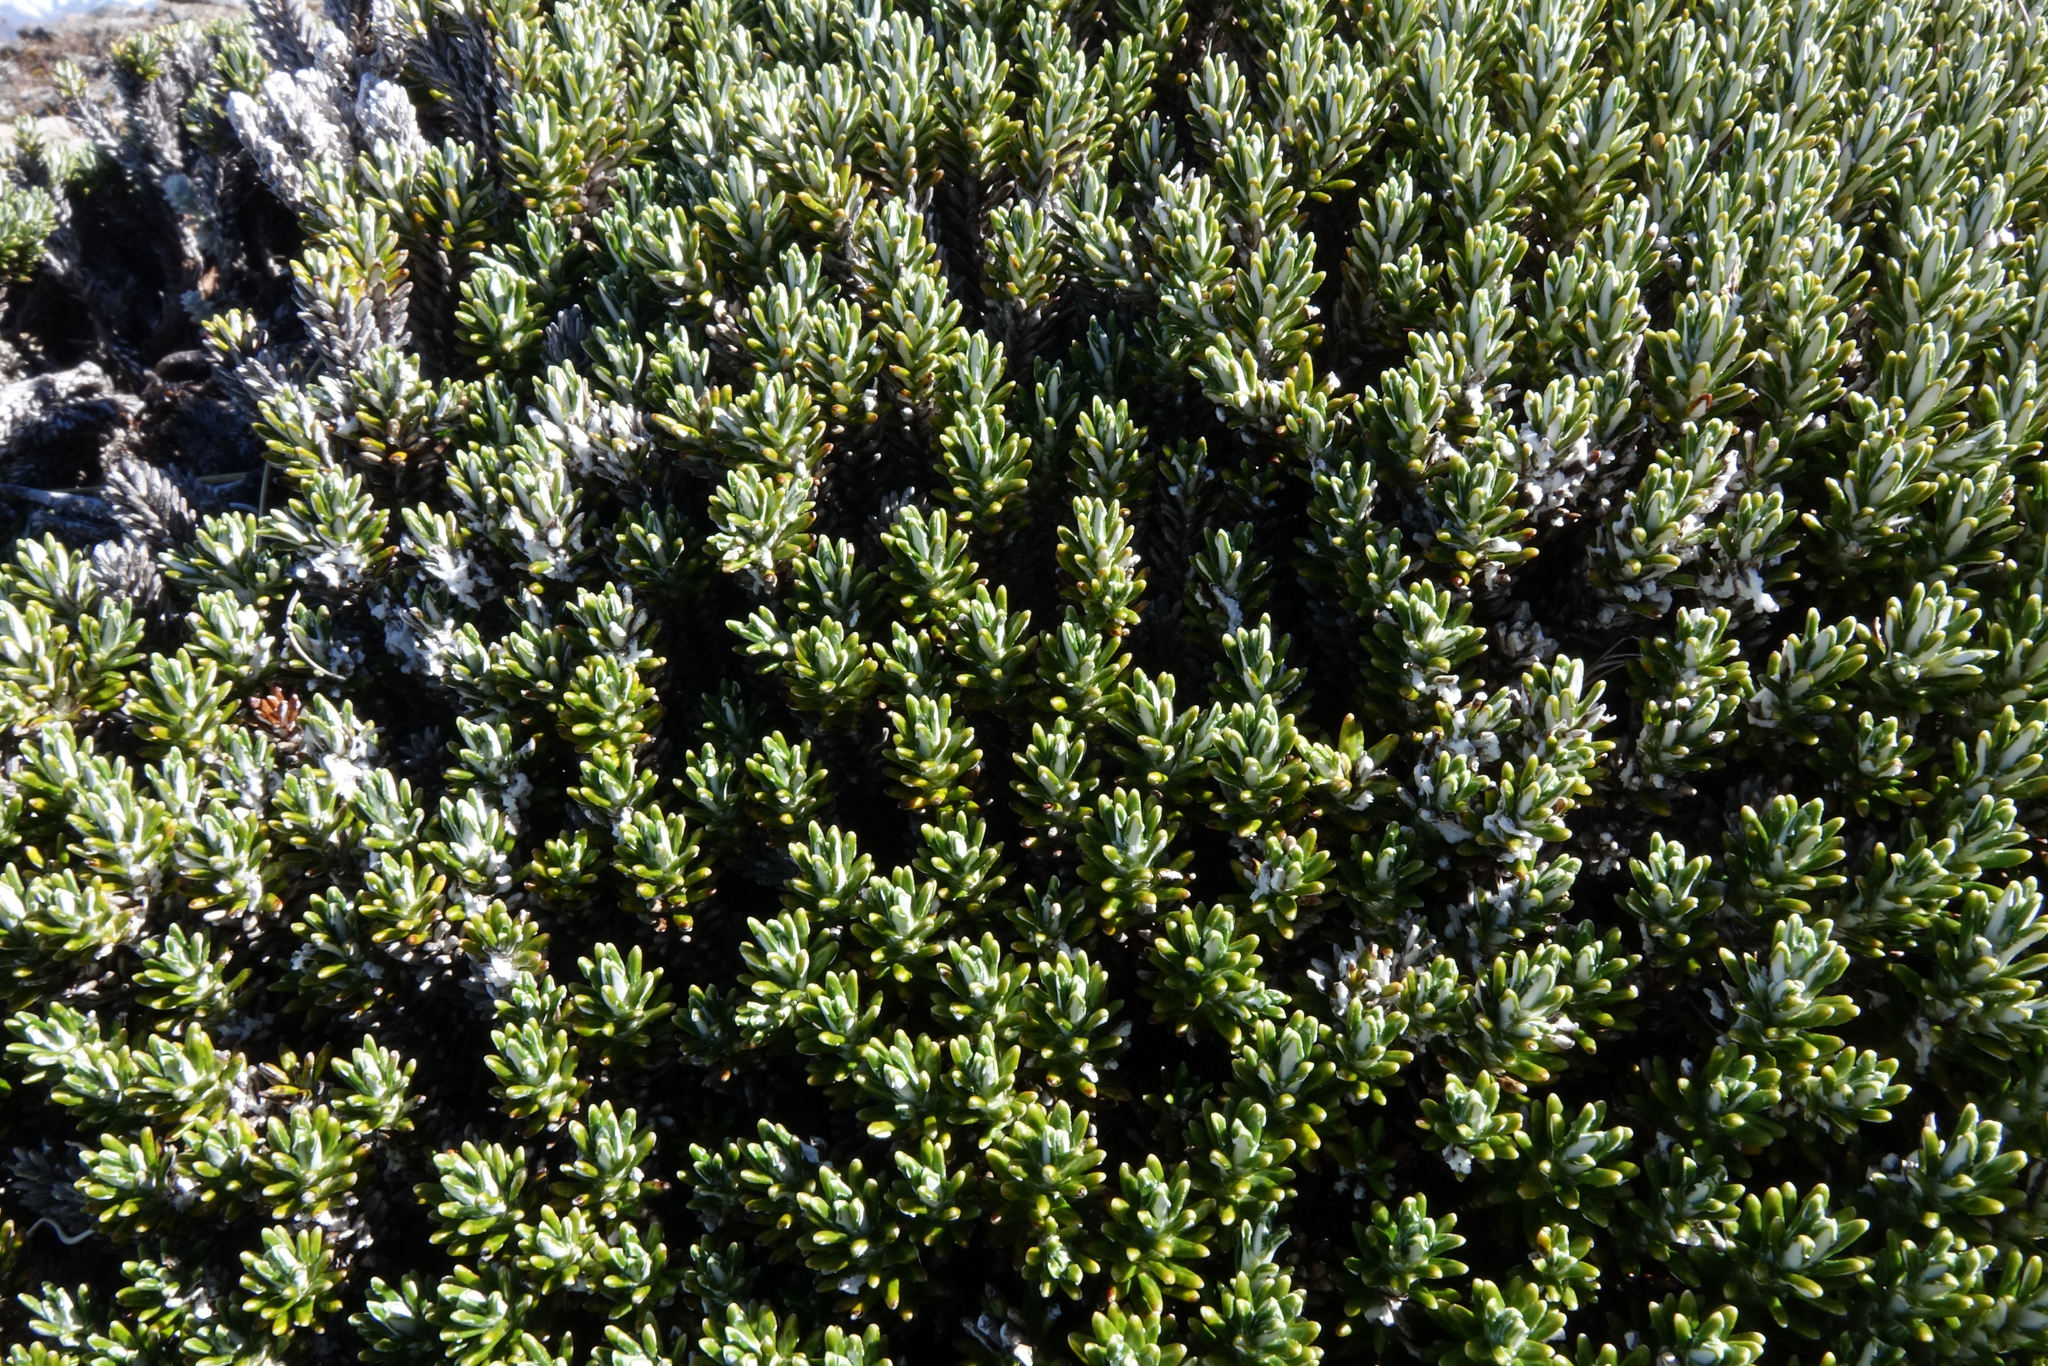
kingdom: Plantae
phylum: Tracheophyta
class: Magnoliopsida
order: Asterales
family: Asteraceae
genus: Celmisia
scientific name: Celmisia ramulosa
